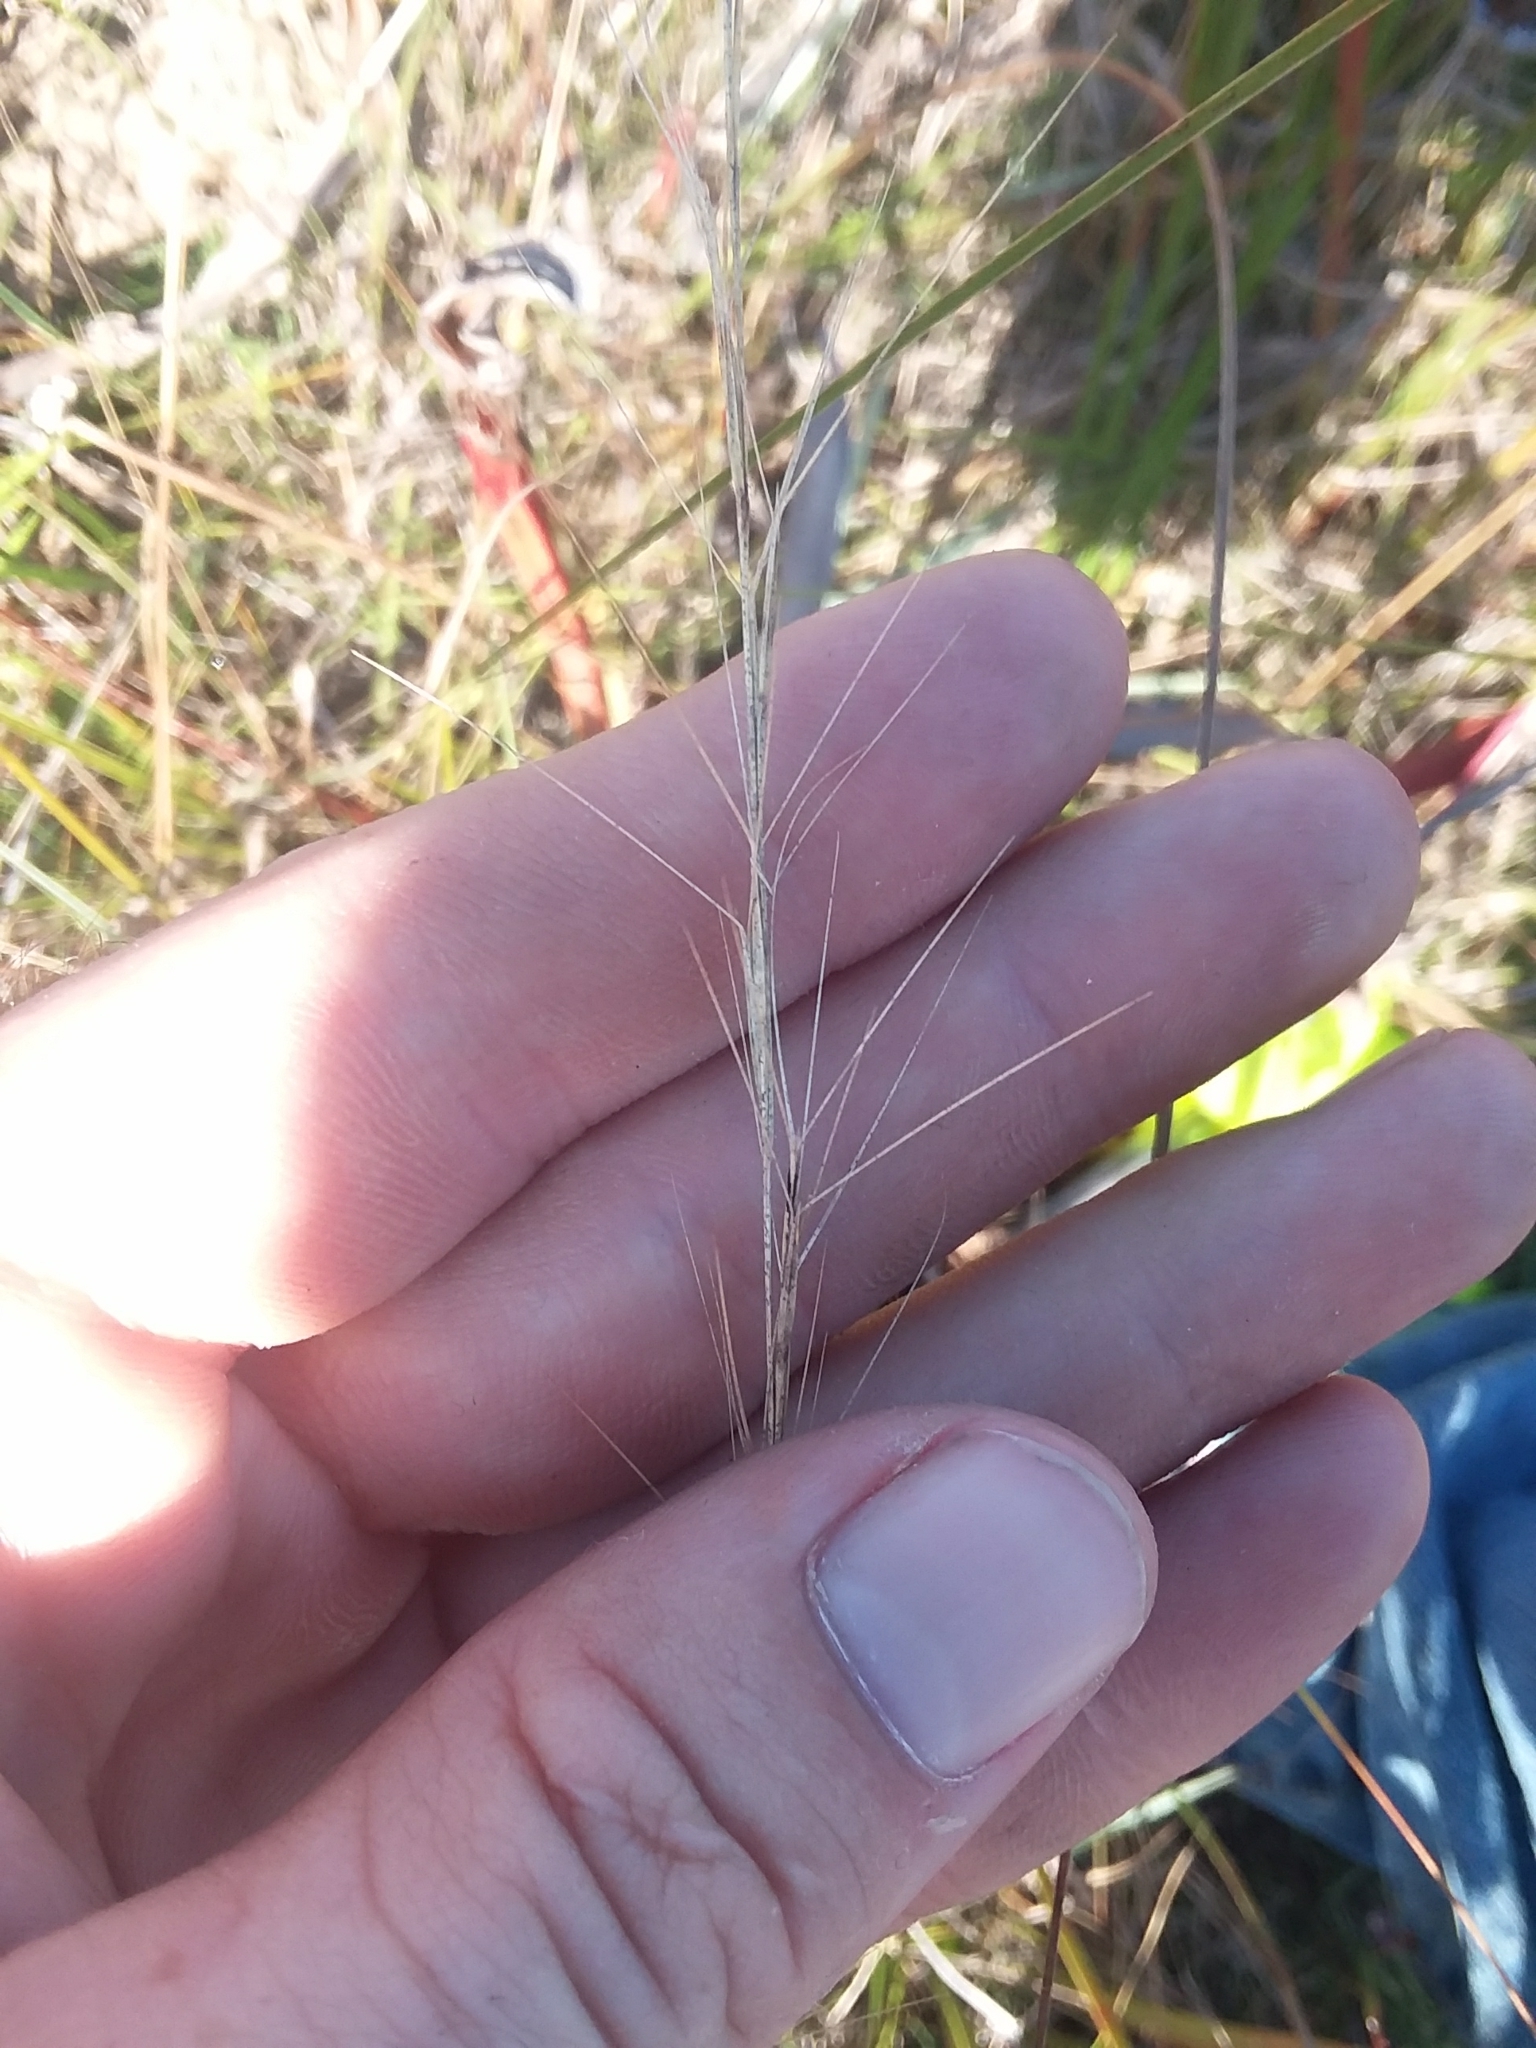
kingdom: Plantae
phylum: Tracheophyta
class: Liliopsida
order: Poales
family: Poaceae
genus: Aristida
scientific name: Aristida palustris
